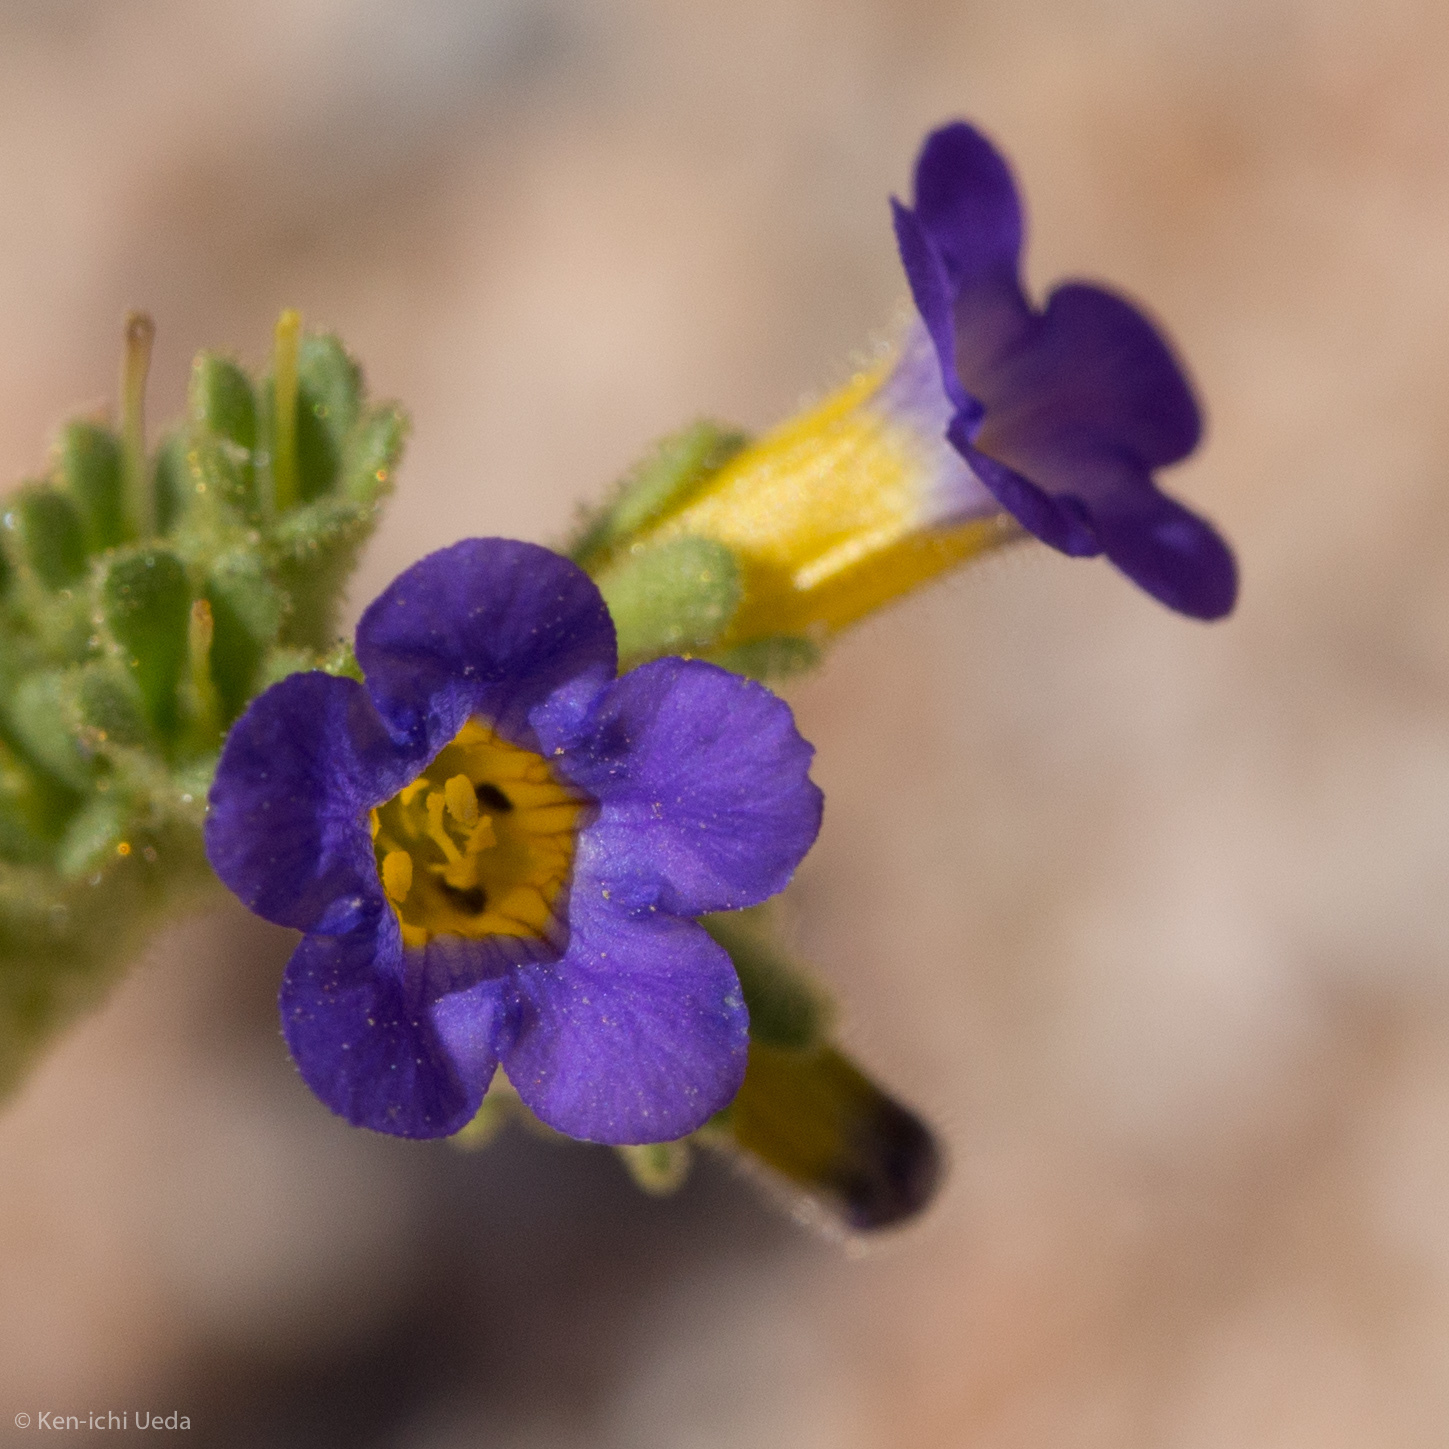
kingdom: Plantae
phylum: Tracheophyta
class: Magnoliopsida
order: Boraginales
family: Hydrophyllaceae
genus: Phacelia
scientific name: Phacelia fremontii
